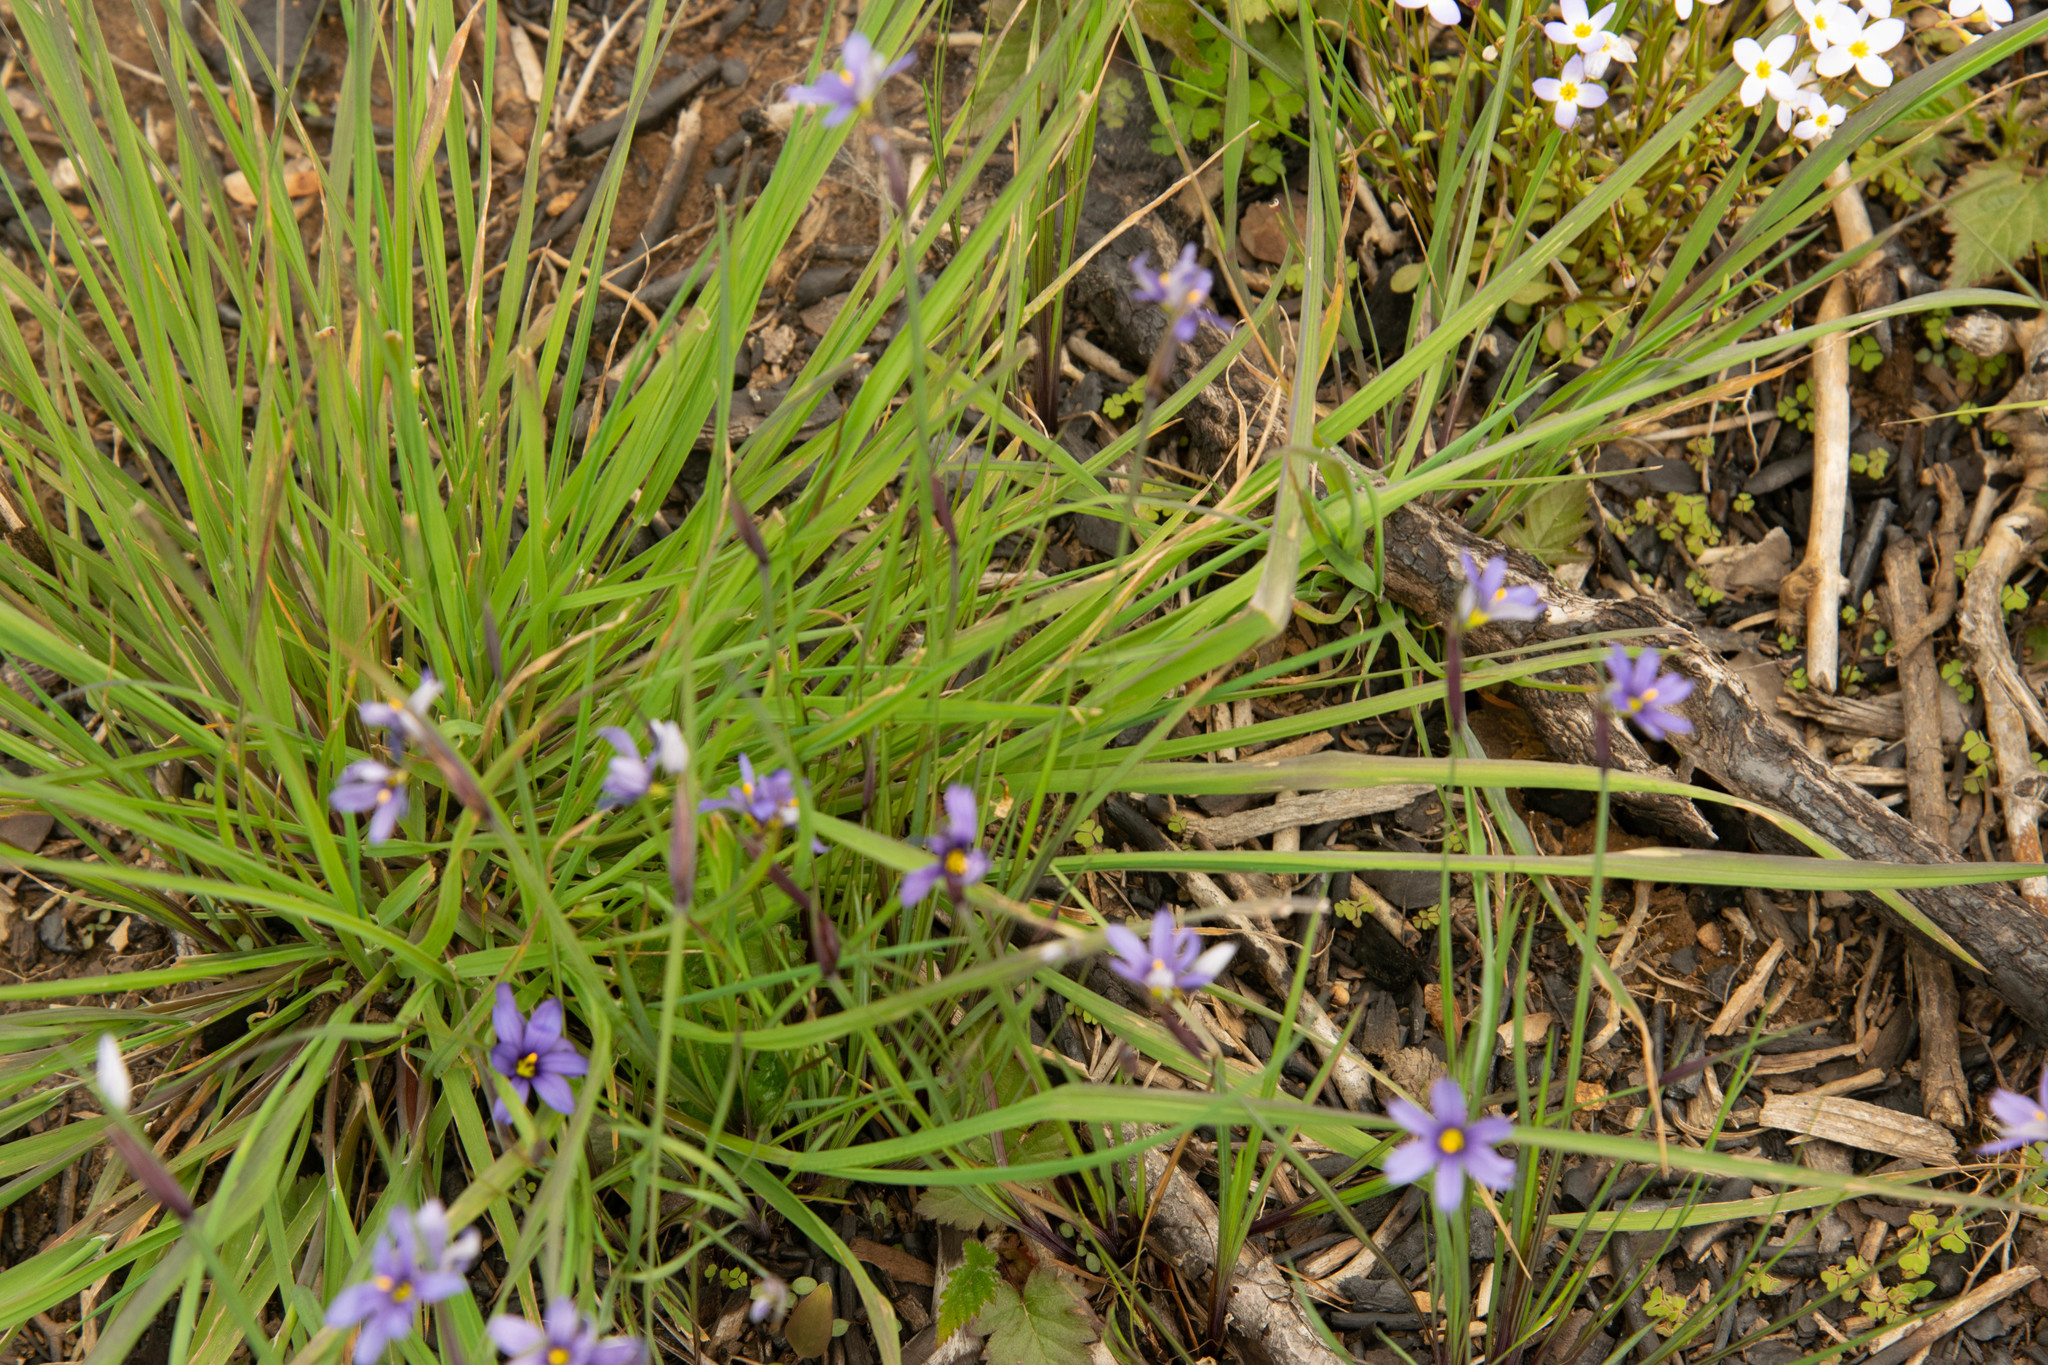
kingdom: Plantae
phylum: Tracheophyta
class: Liliopsida
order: Asparagales
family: Iridaceae
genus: Sisyrinchium
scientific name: Sisyrinchium angustifolium
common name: Narrow-leaf blue-eyed-grass
